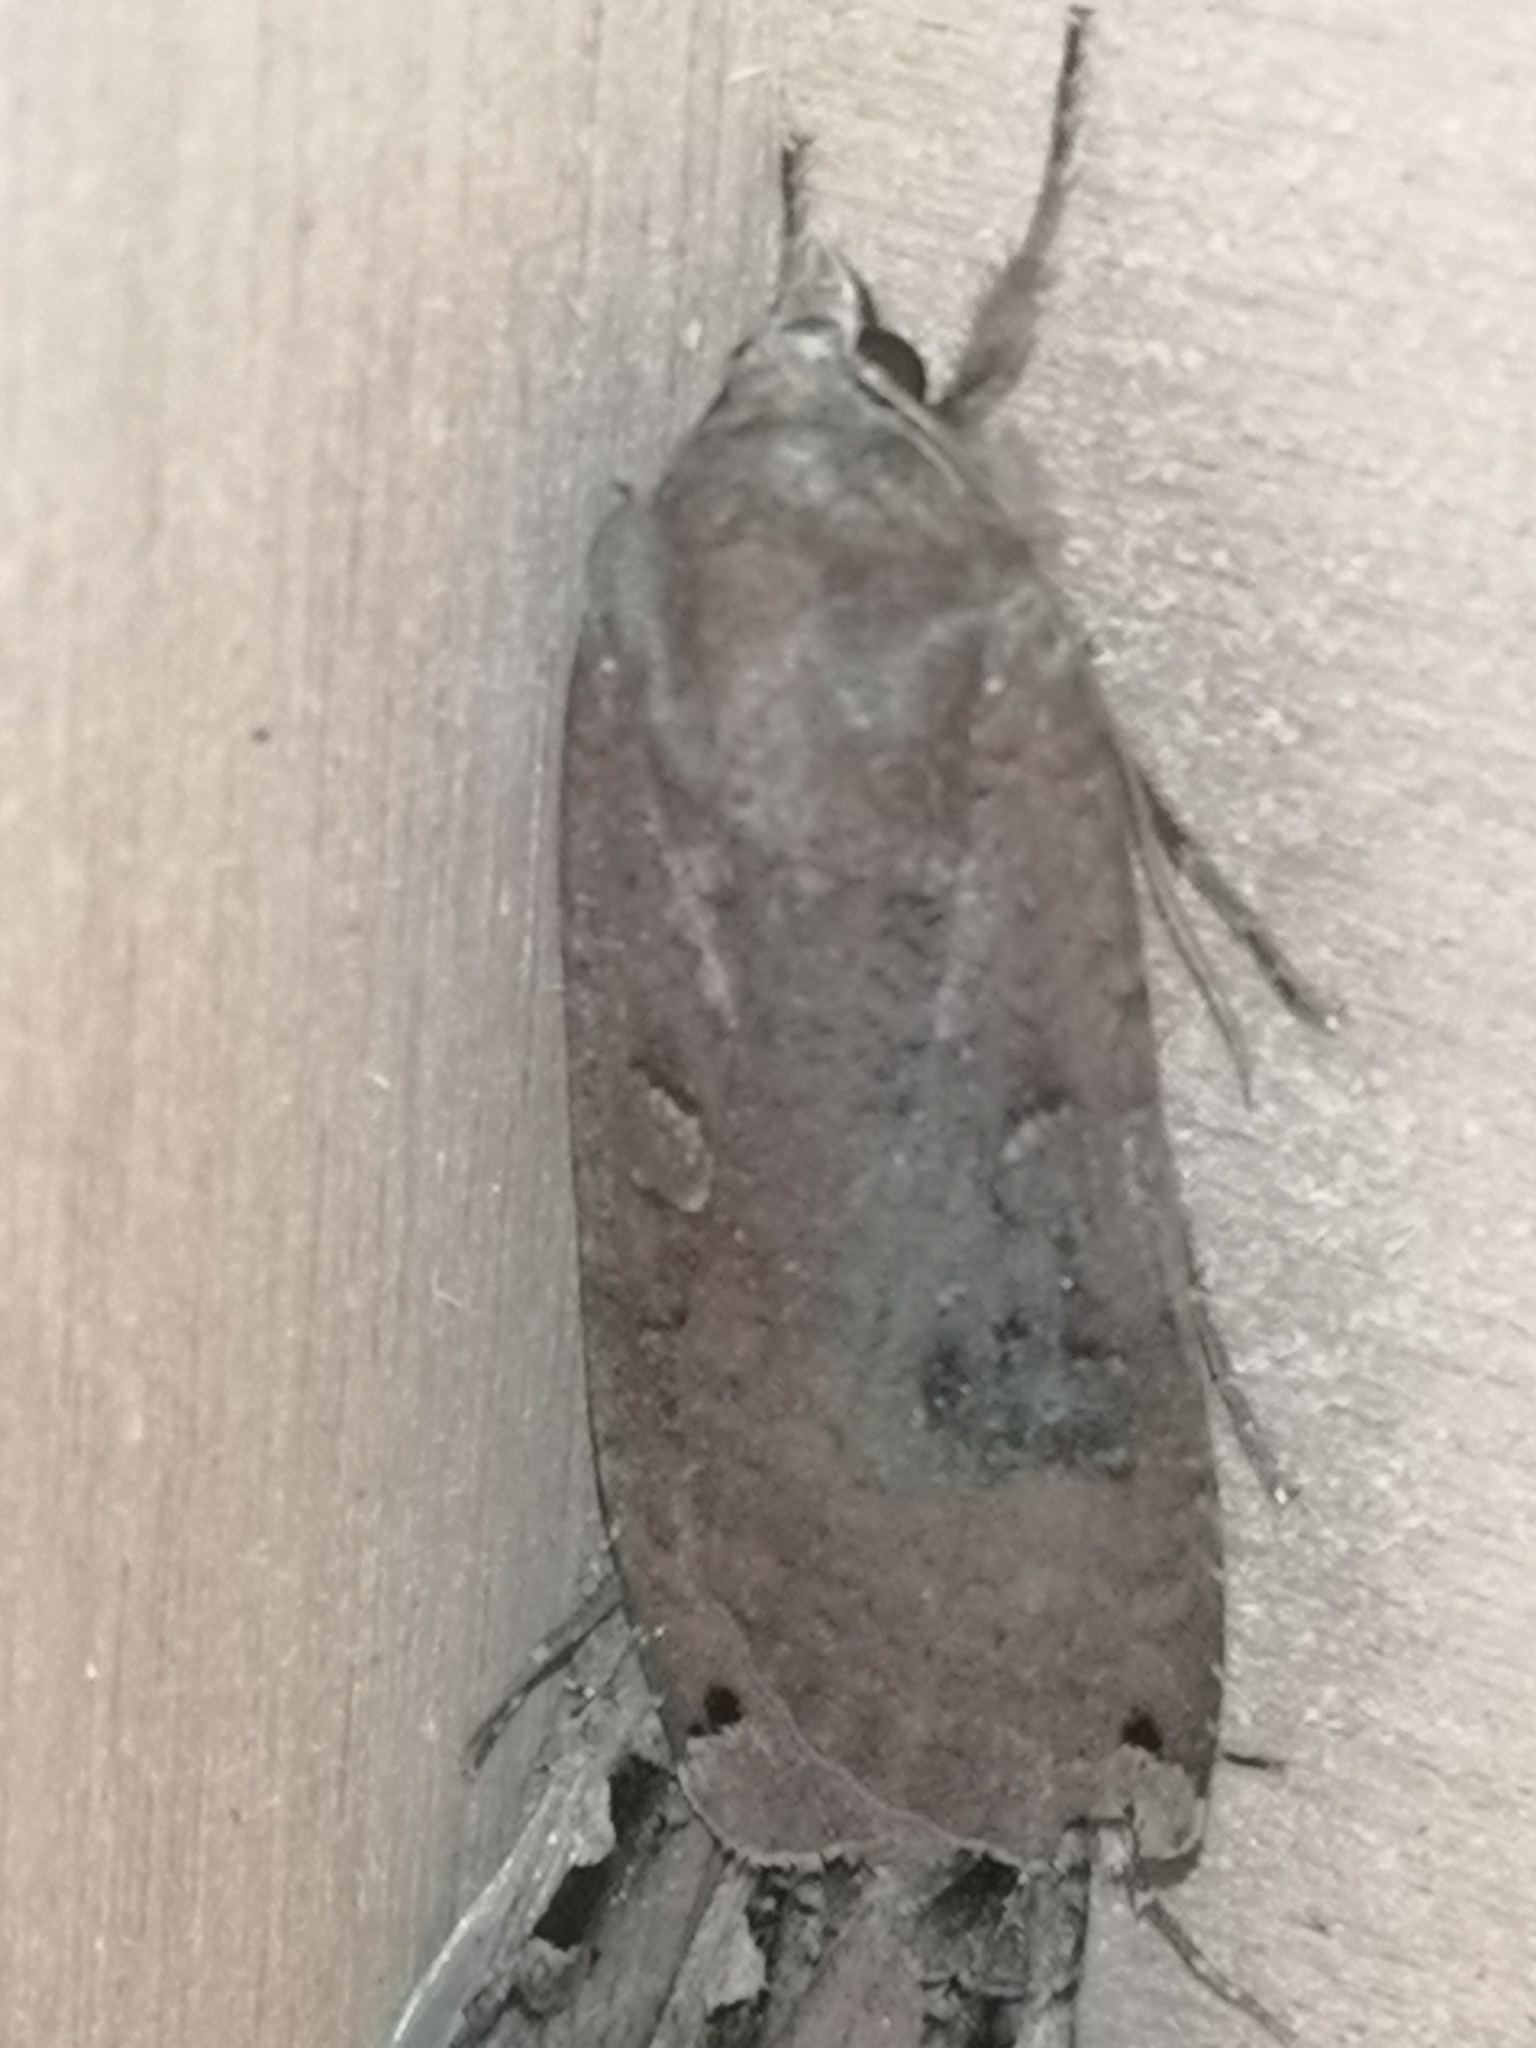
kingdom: Animalia
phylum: Arthropoda
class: Insecta
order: Lepidoptera
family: Noctuidae
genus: Noctua
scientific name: Noctua pronuba
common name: Large yellow underwing
